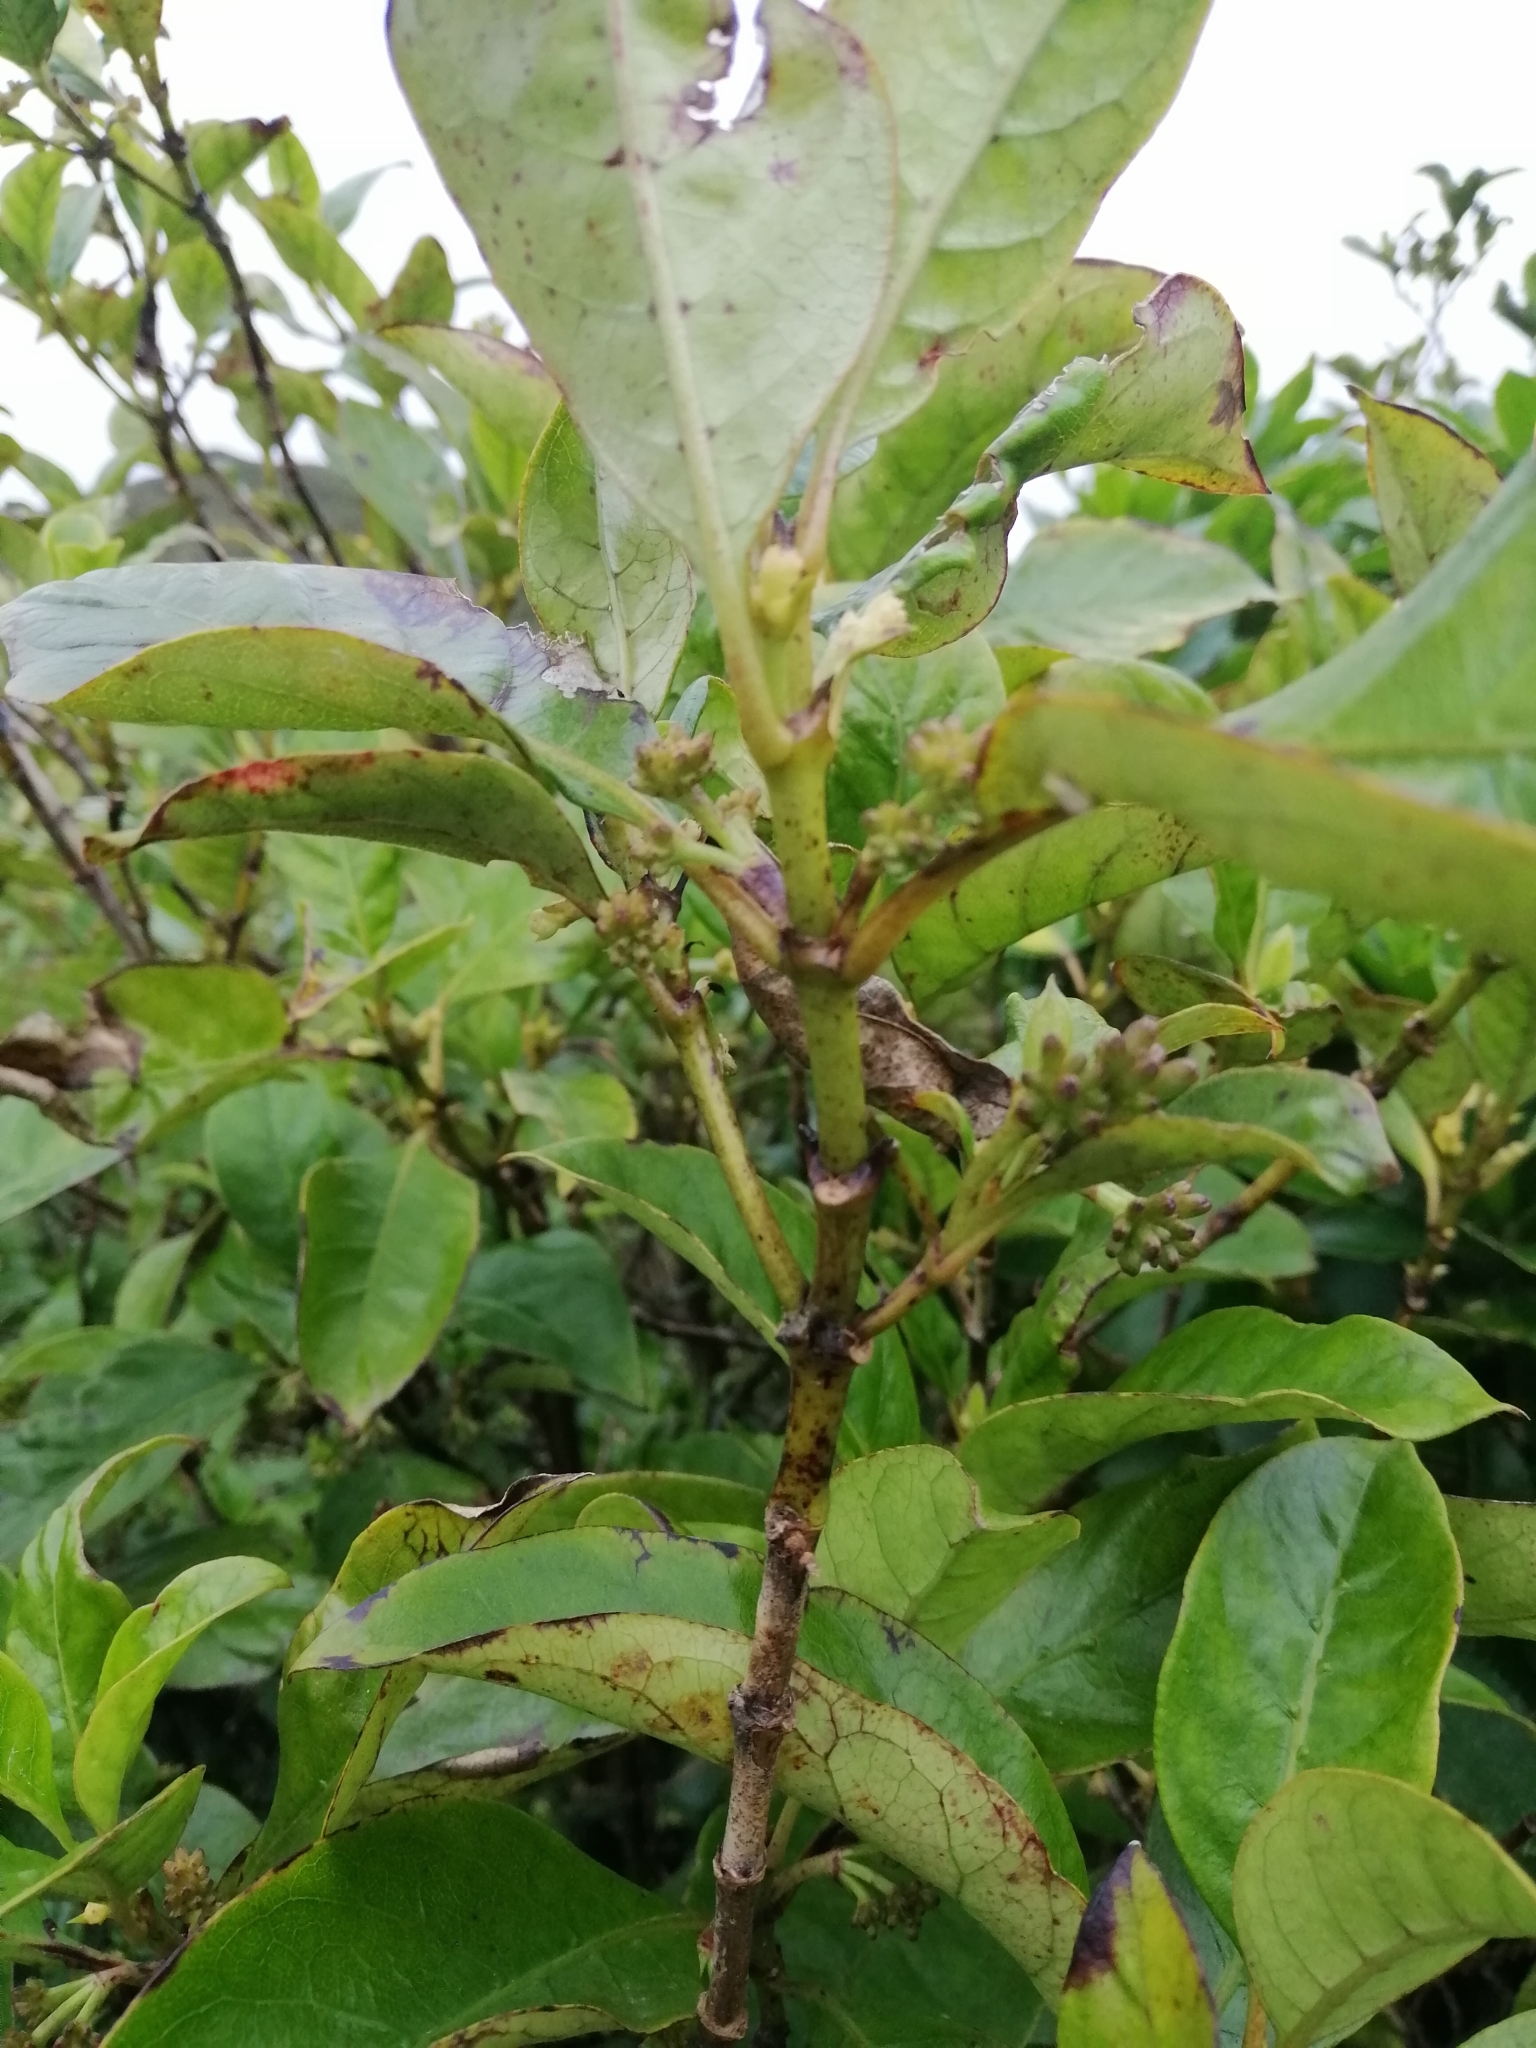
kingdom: Plantae
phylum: Tracheophyta
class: Magnoliopsida
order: Gentianales
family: Rubiaceae
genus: Coprosma
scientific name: Coprosma autumnalis
